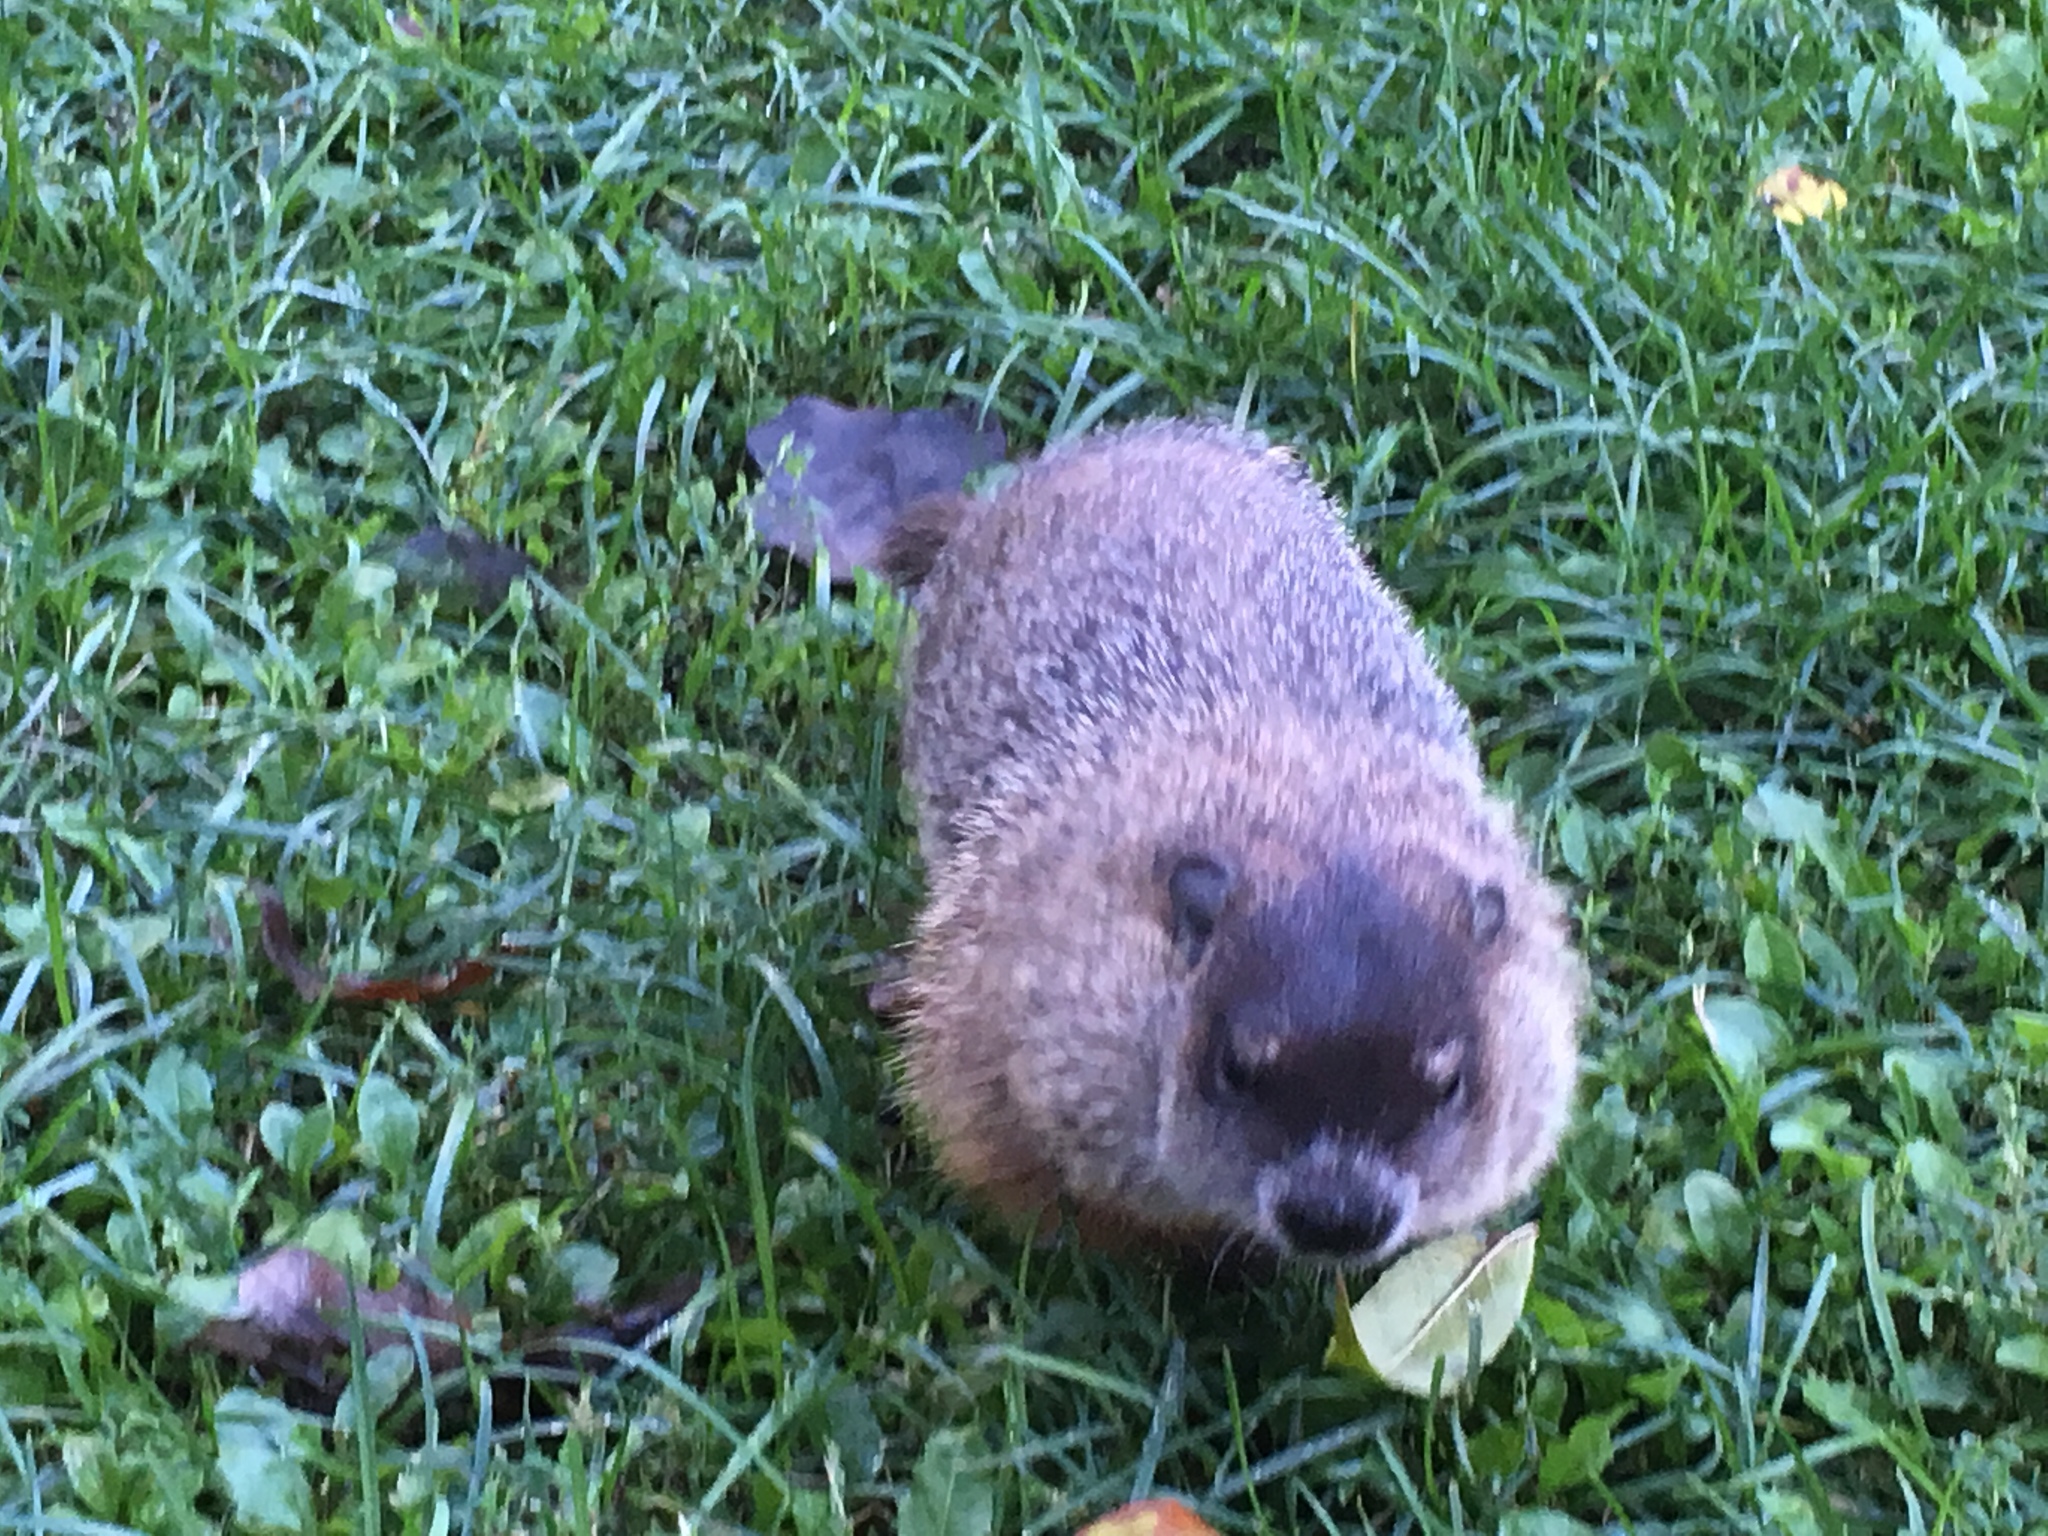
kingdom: Animalia
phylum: Chordata
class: Mammalia
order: Rodentia
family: Sciuridae
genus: Marmota
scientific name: Marmota monax
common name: Groundhog
